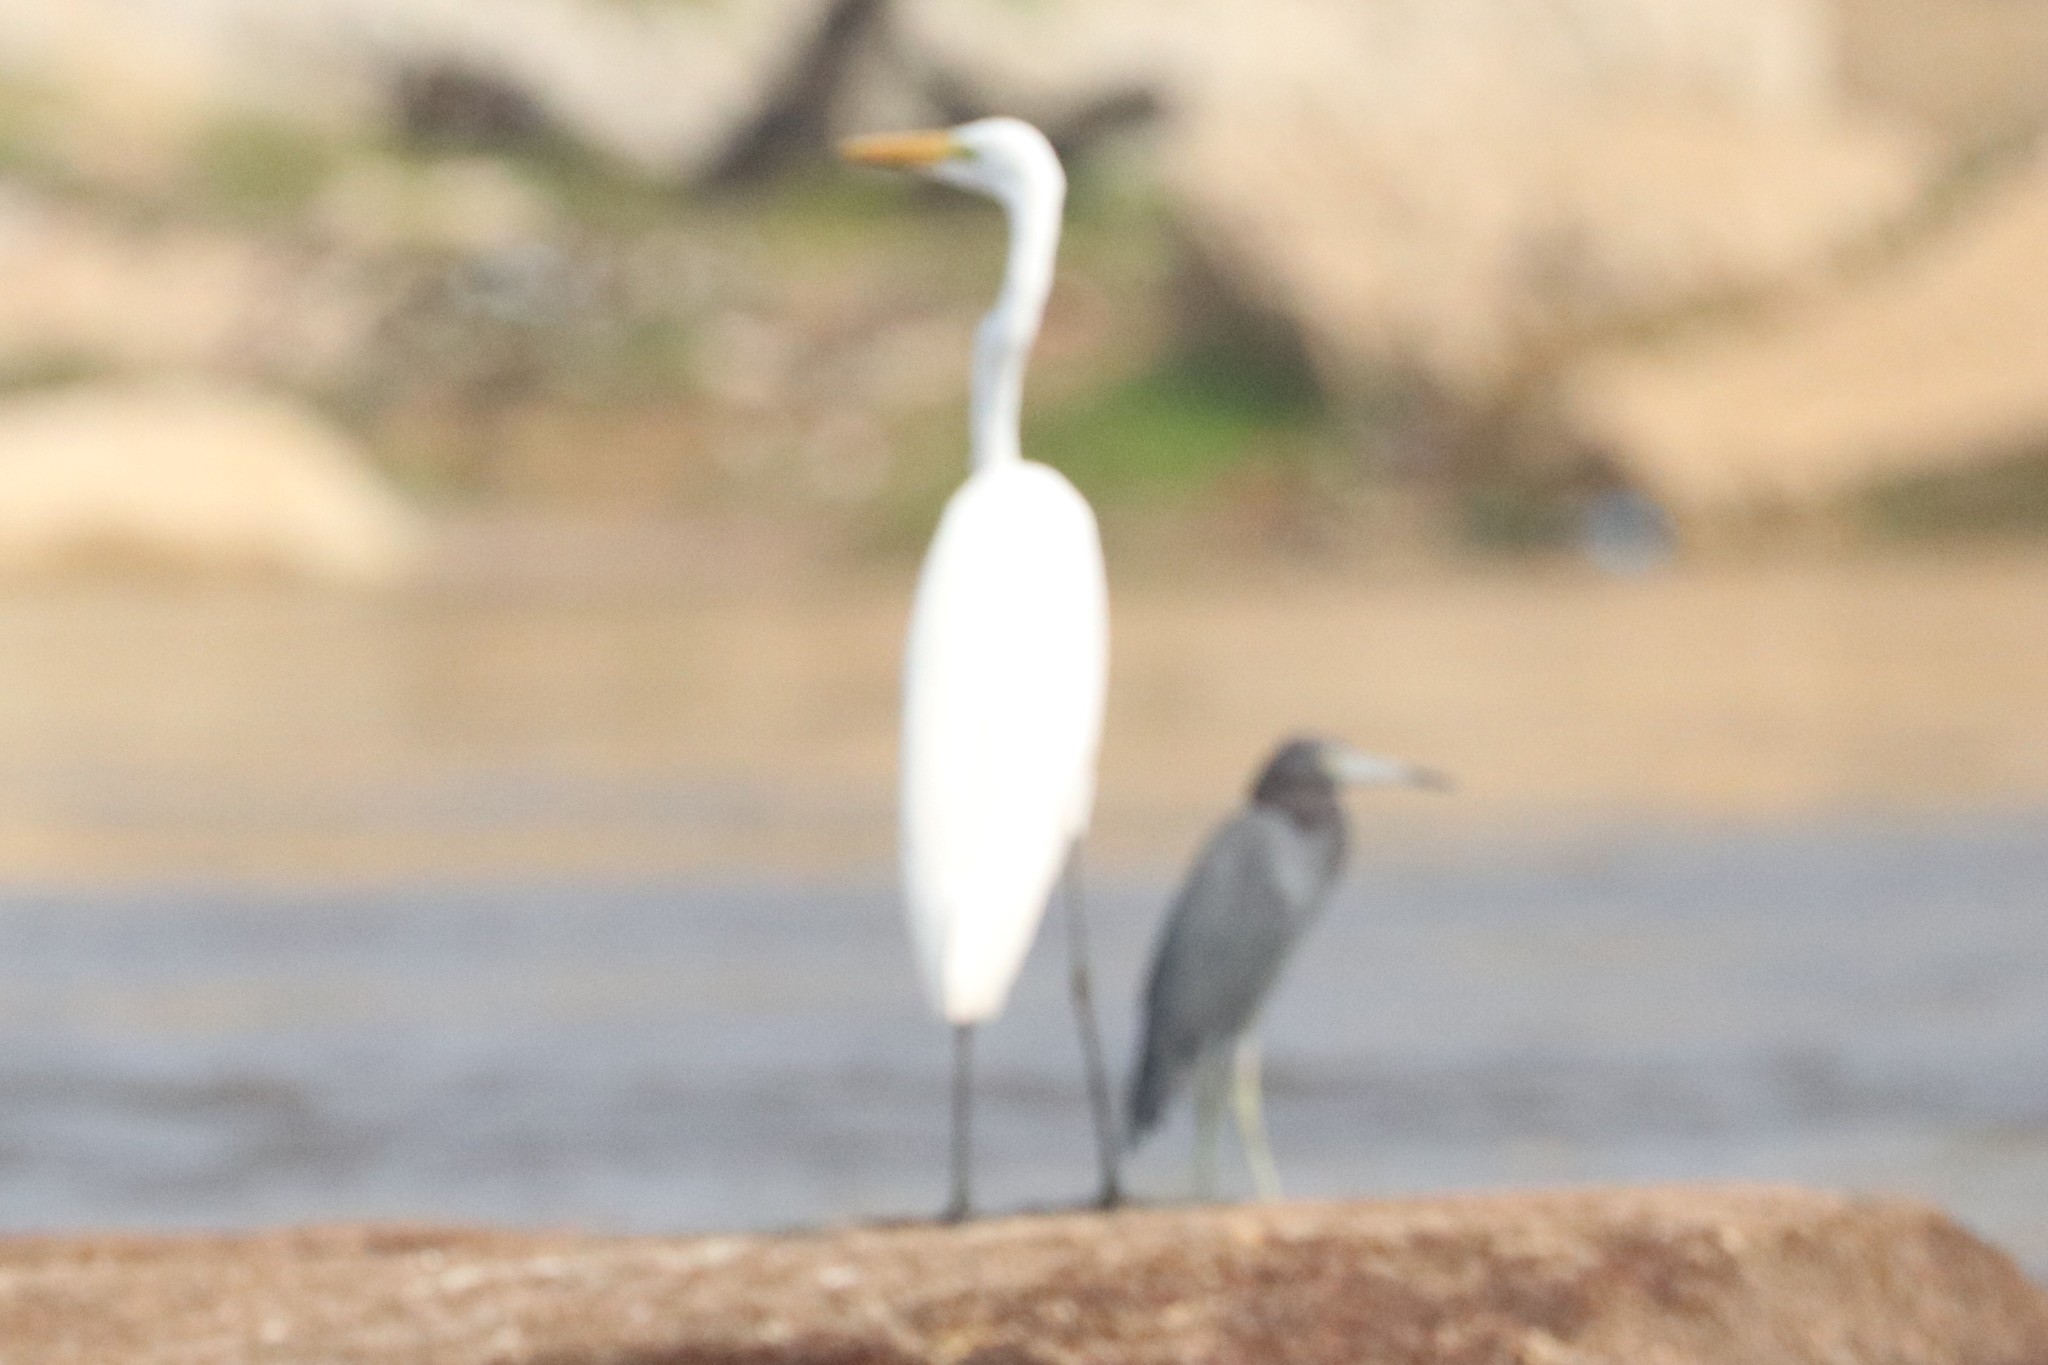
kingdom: Animalia
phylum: Chordata
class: Aves
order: Pelecaniformes
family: Ardeidae
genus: Egretta
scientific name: Egretta caerulea
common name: Little blue heron
